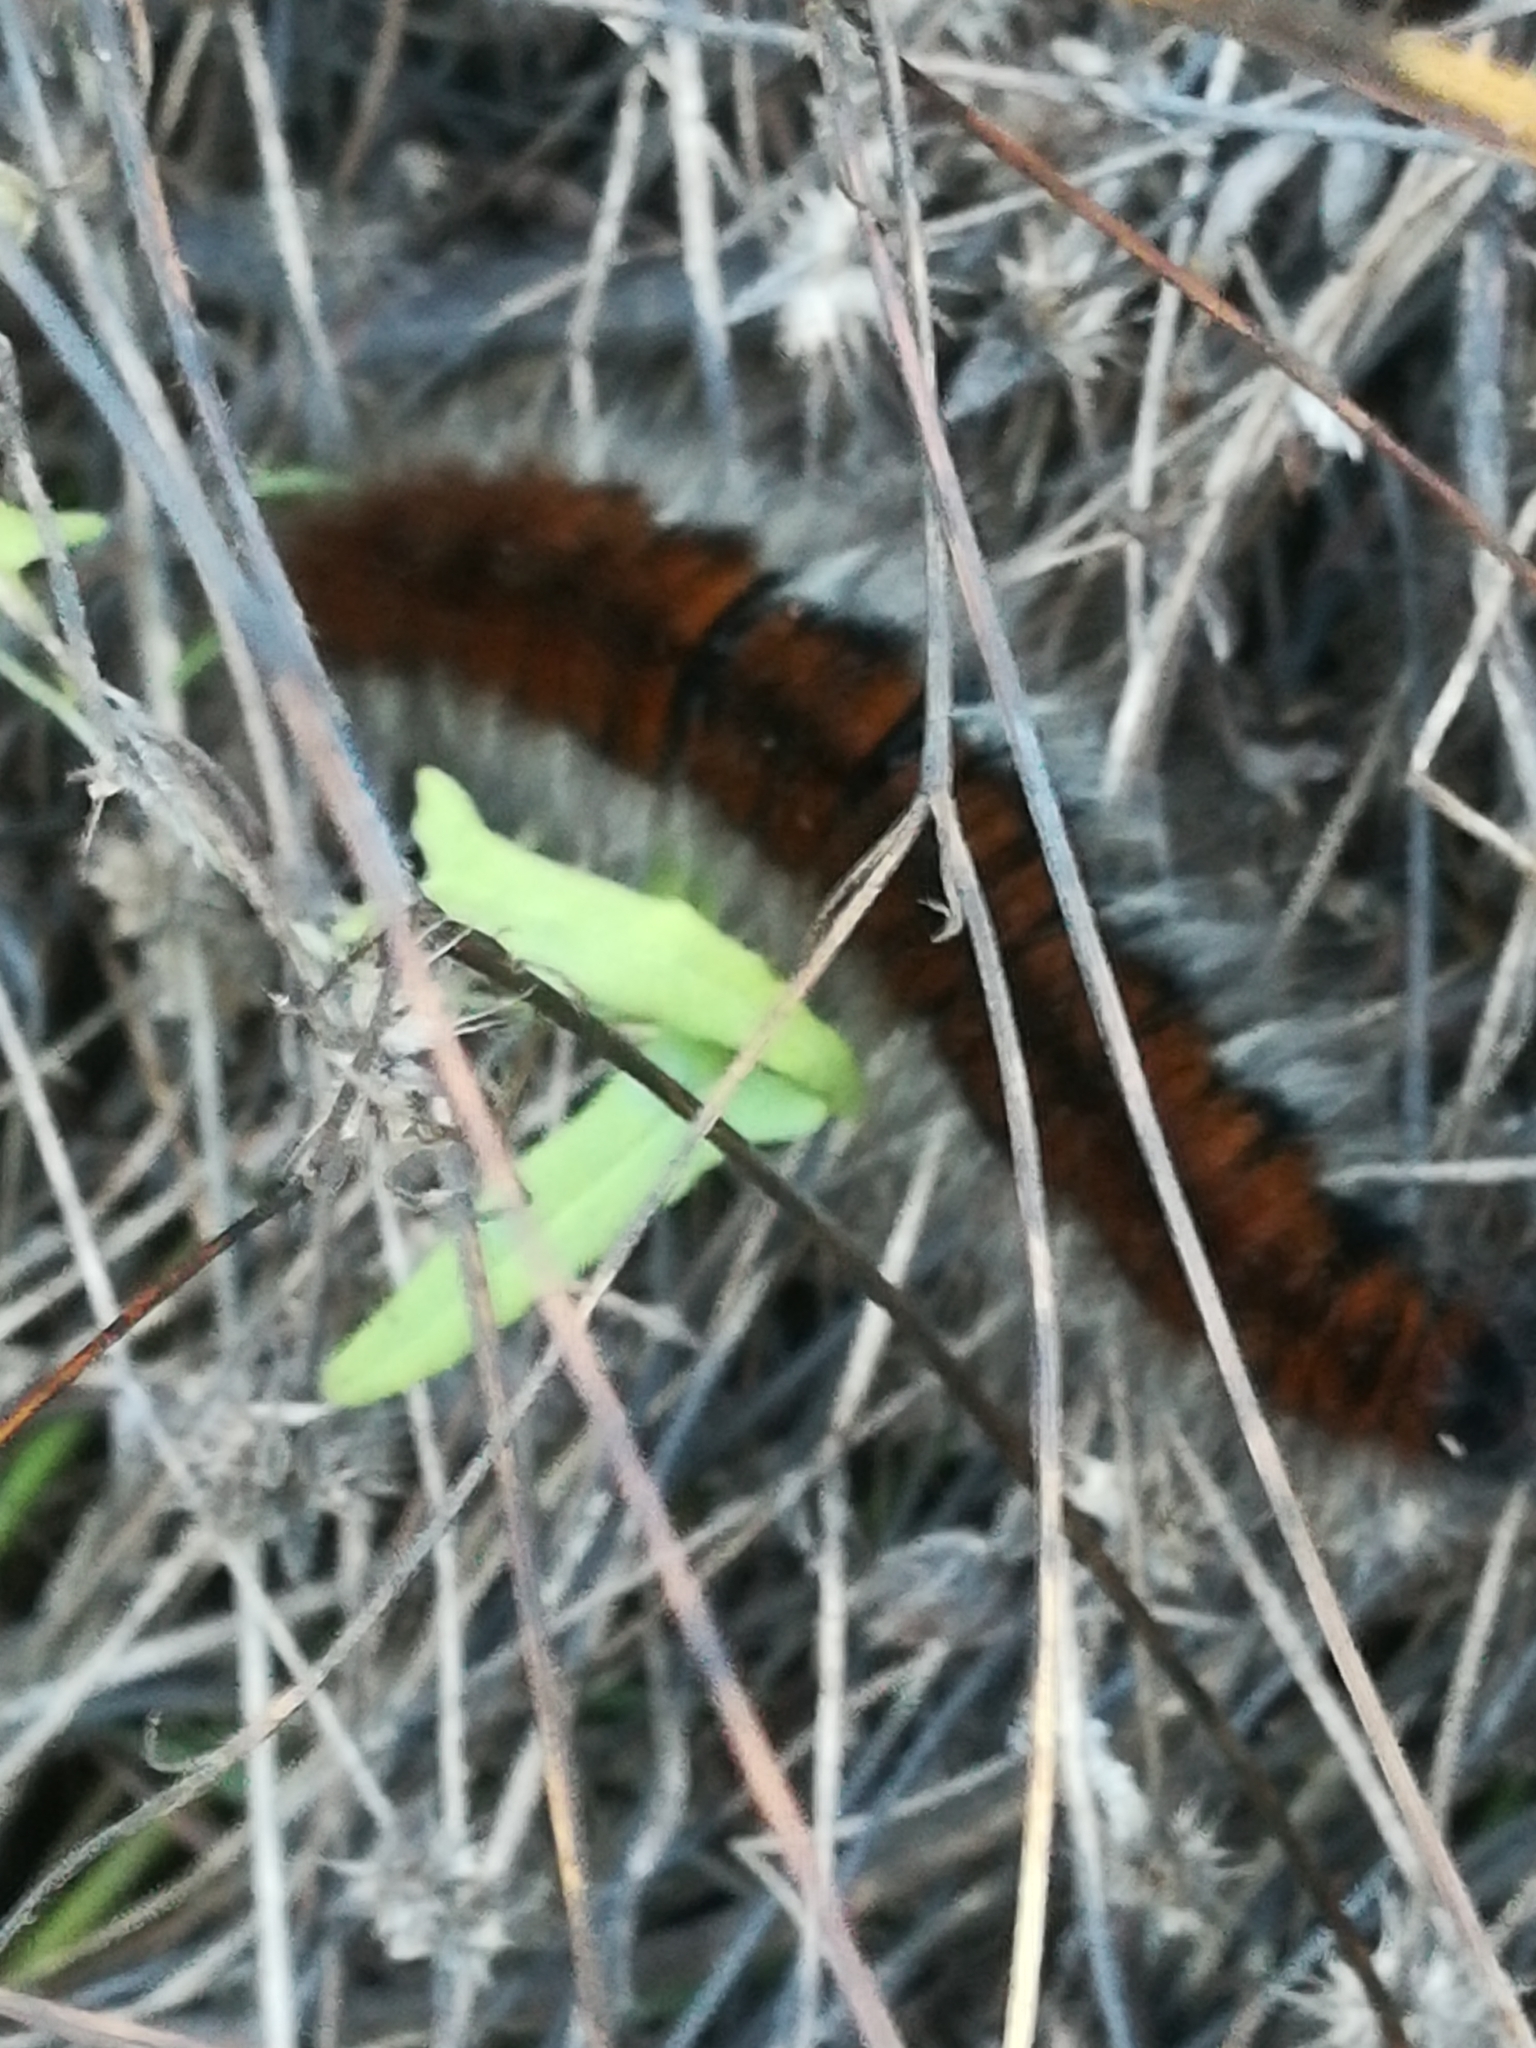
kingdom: Animalia
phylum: Arthropoda
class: Insecta
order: Lepidoptera
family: Lasiocampidae
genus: Macrothylacia
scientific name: Macrothylacia rubi
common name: Fox moth
